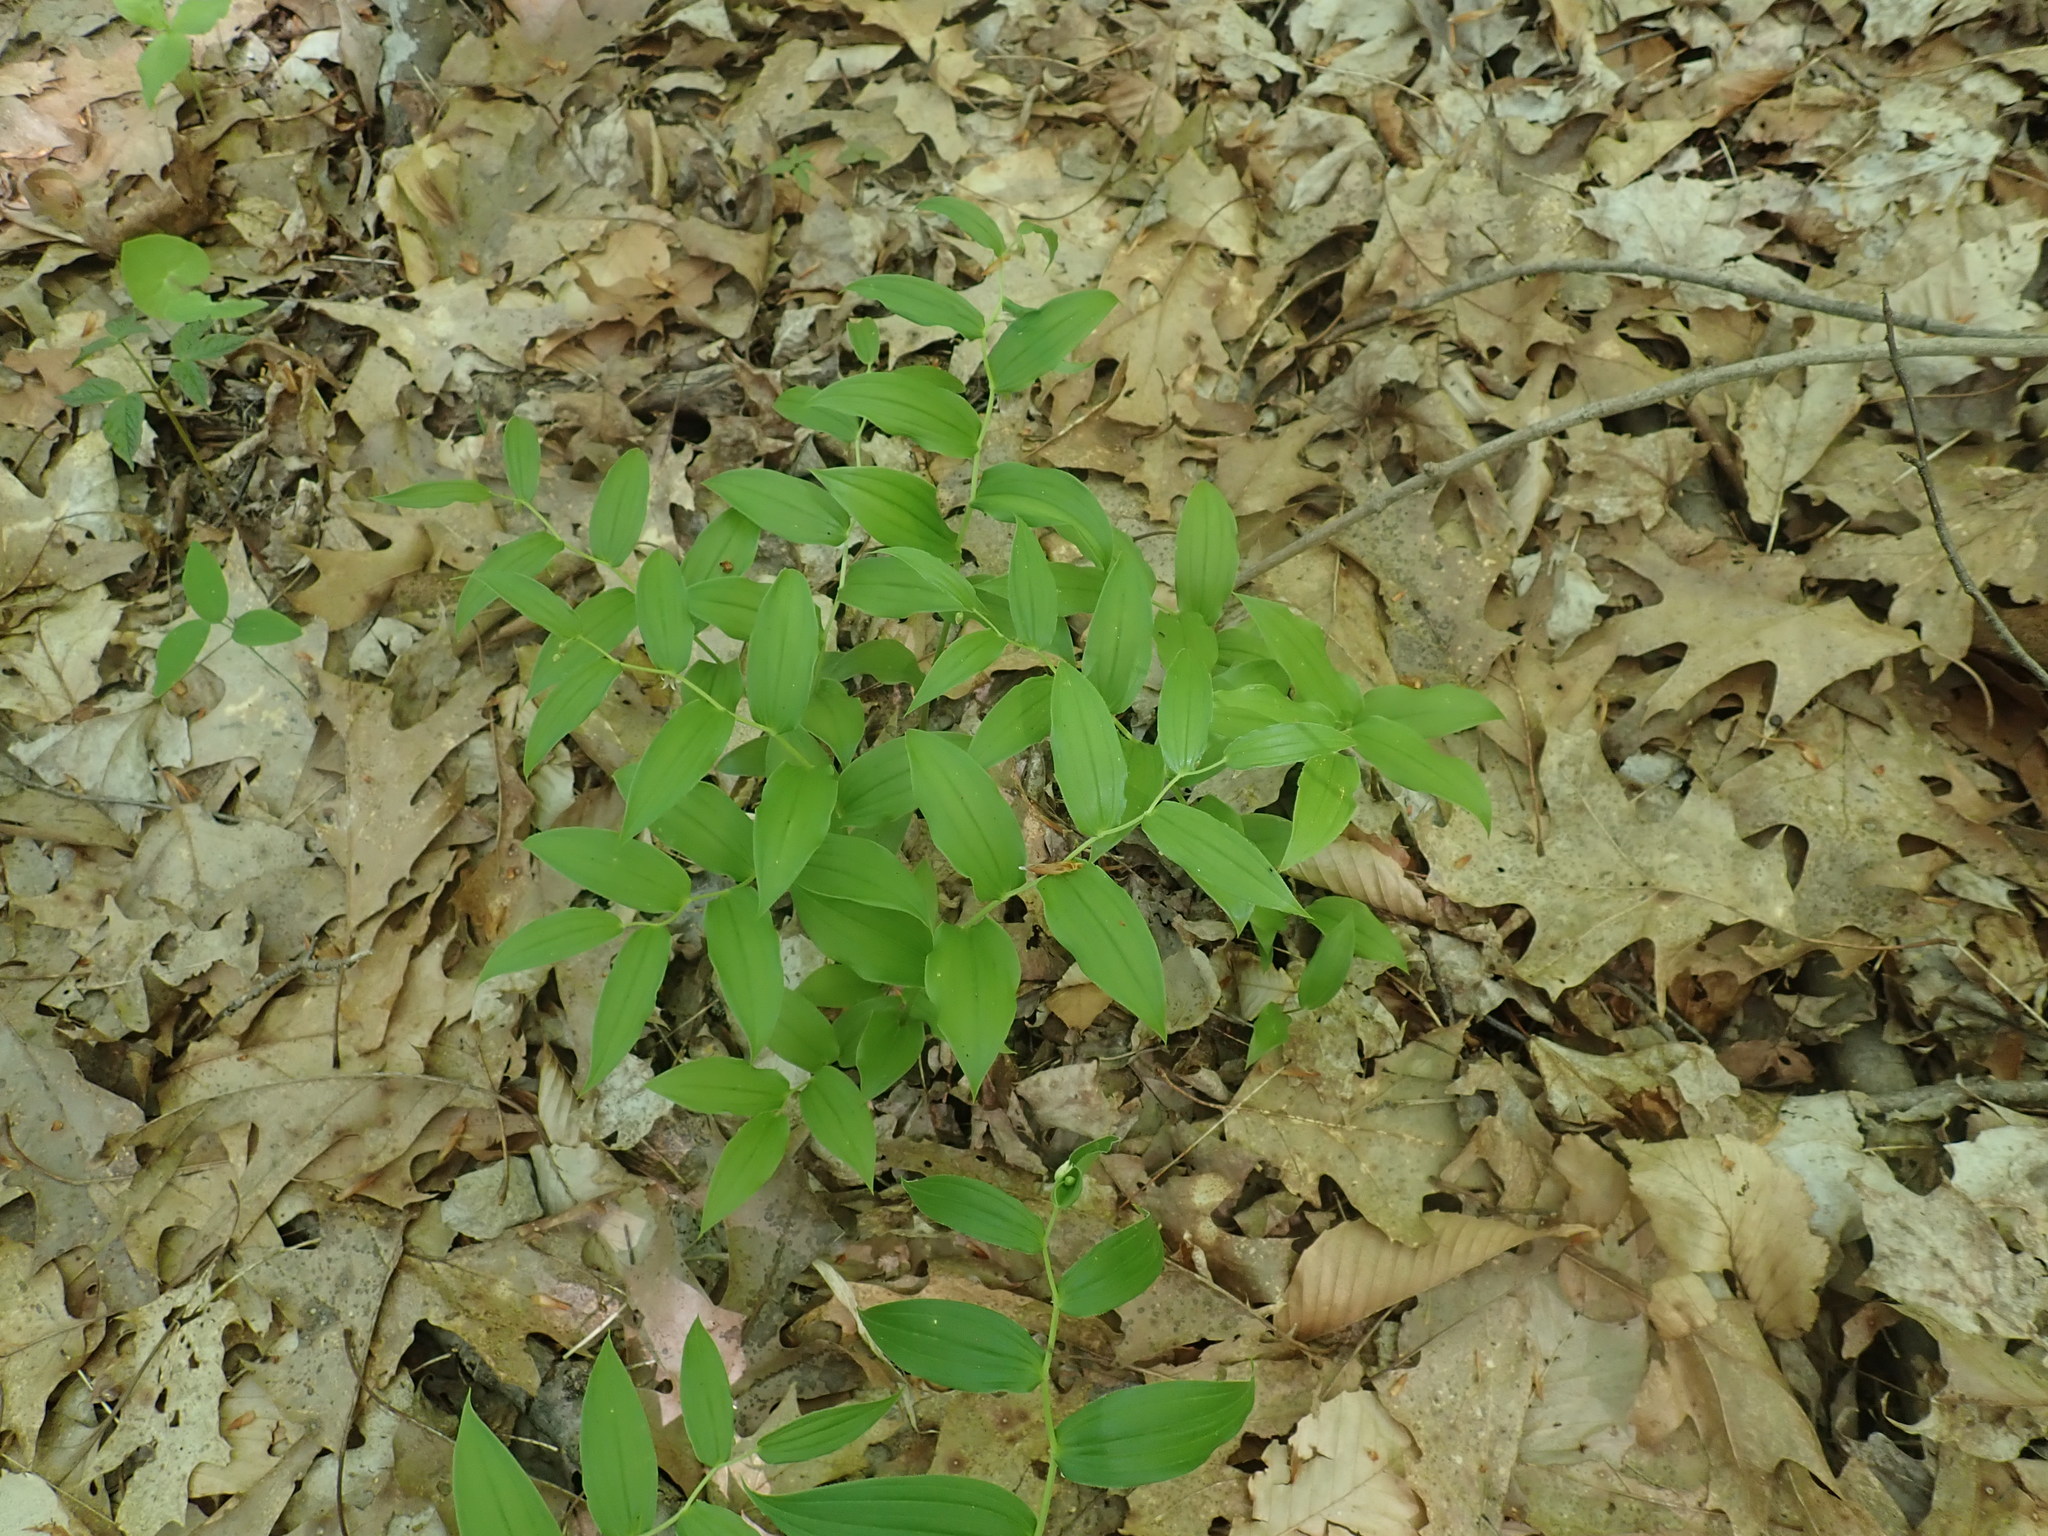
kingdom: Plantae
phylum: Tracheophyta
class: Liliopsida
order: Liliales
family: Liliaceae
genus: Streptopus
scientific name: Streptopus lanceolatus
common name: Rose mandarin
